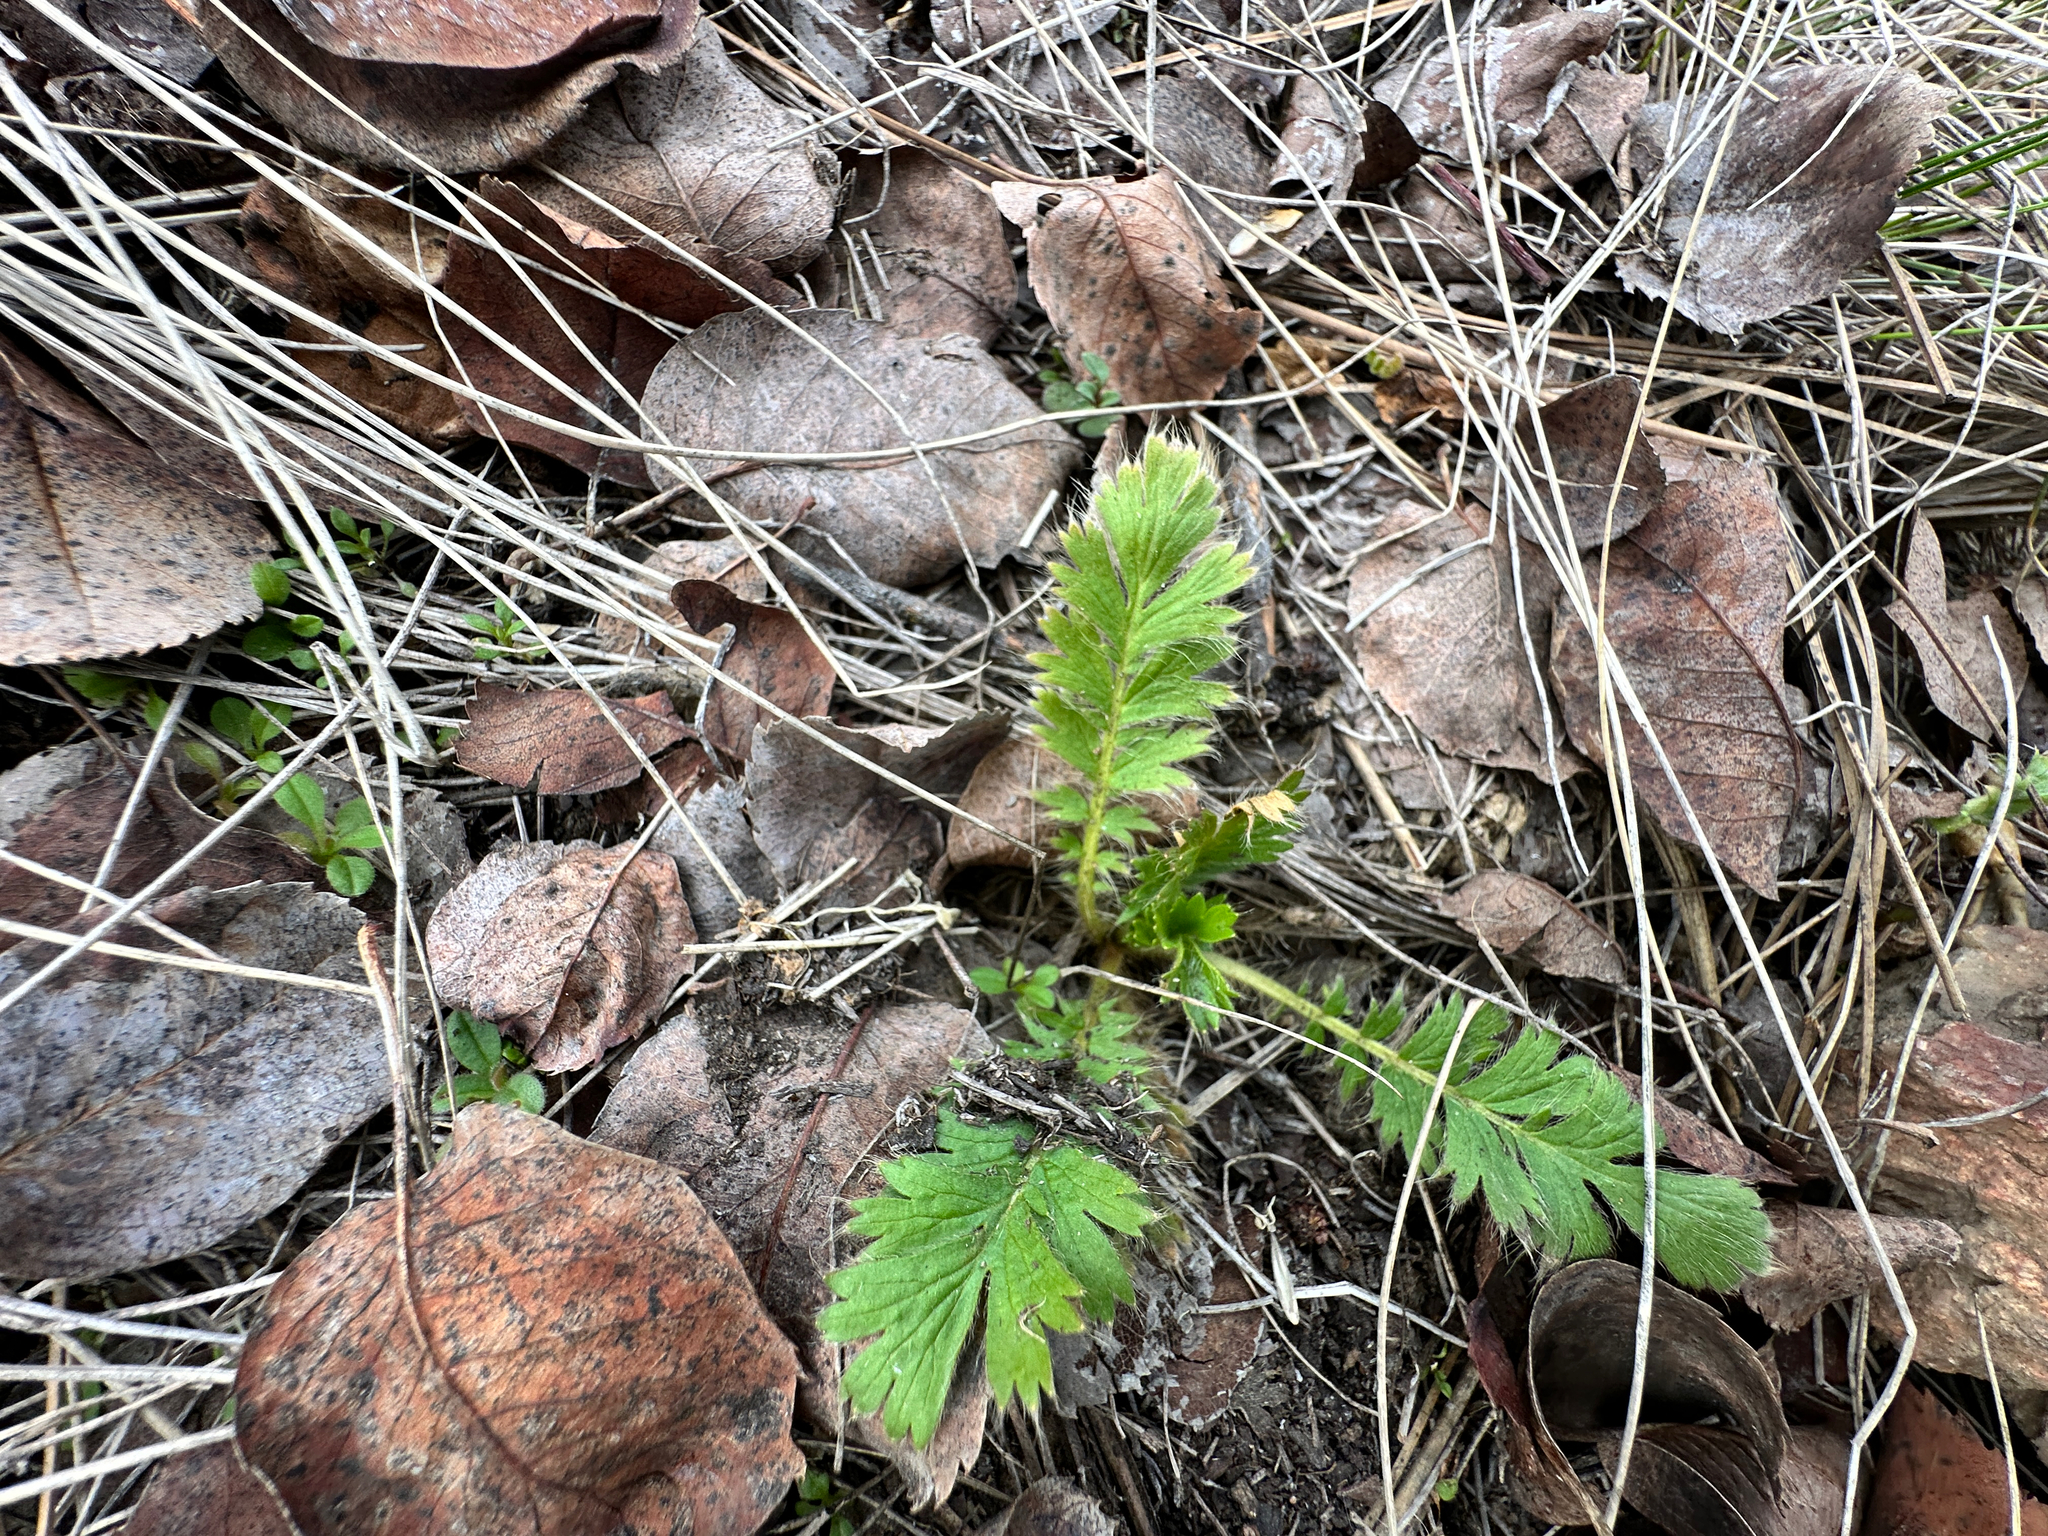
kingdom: Plantae
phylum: Tracheophyta
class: Magnoliopsida
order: Rosales
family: Rosaceae
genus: Geum
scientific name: Geum triflorum
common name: Old man's whiskers
